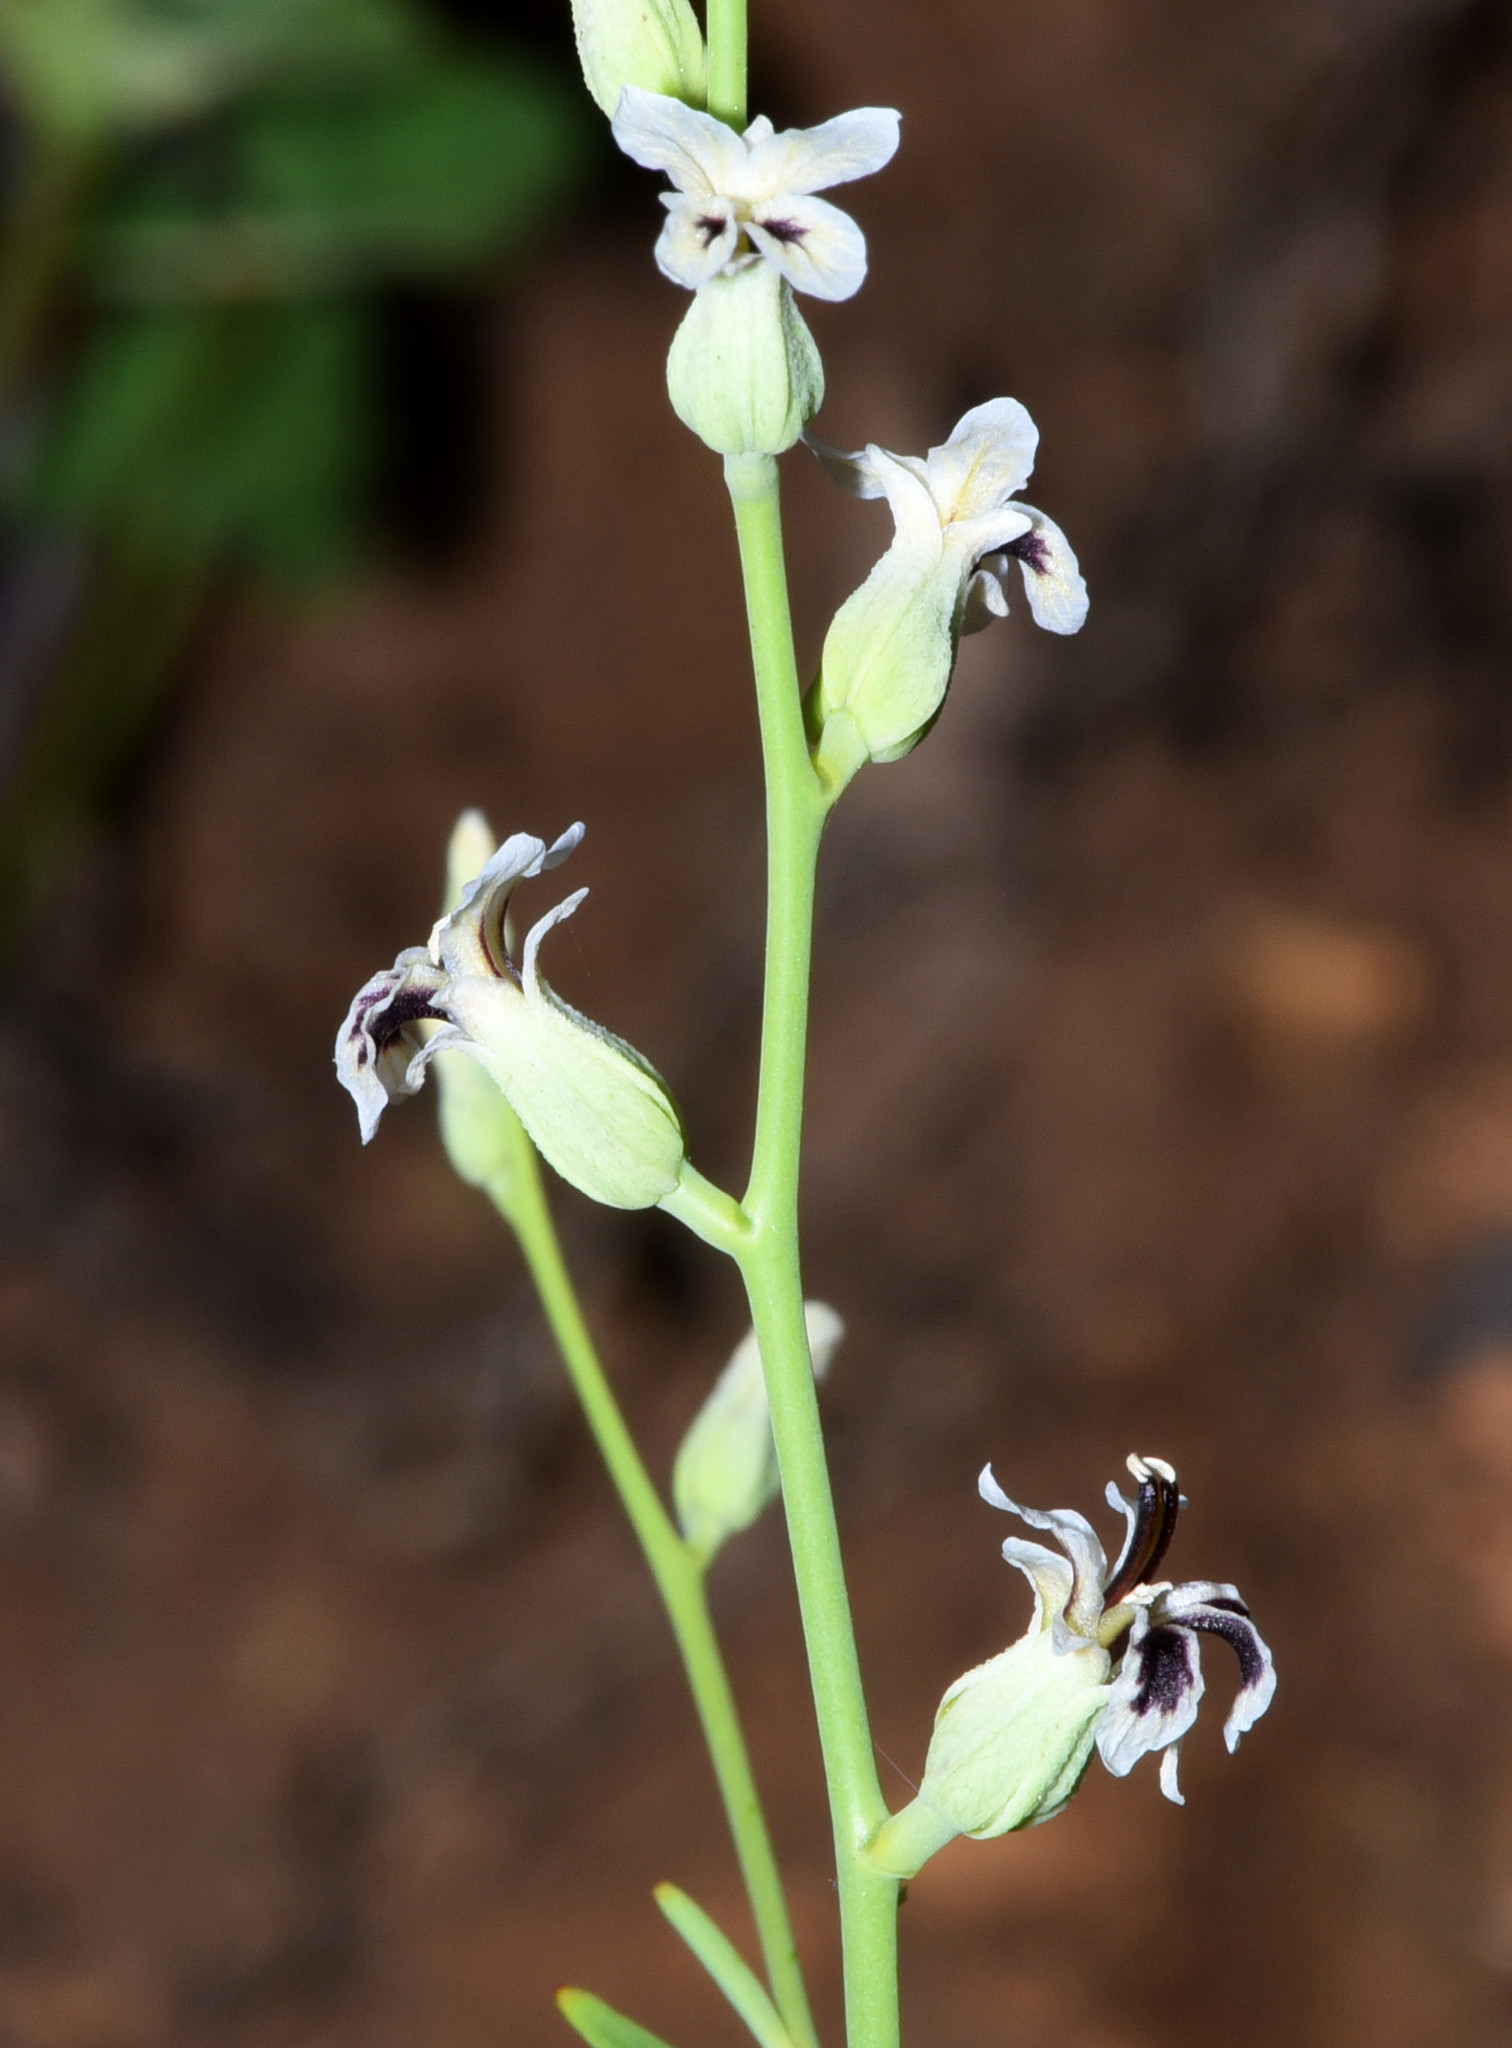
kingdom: Plantae
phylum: Tracheophyta
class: Magnoliopsida
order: Brassicales
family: Brassicaceae
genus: Streptanthus
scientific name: Streptanthus barbiger
